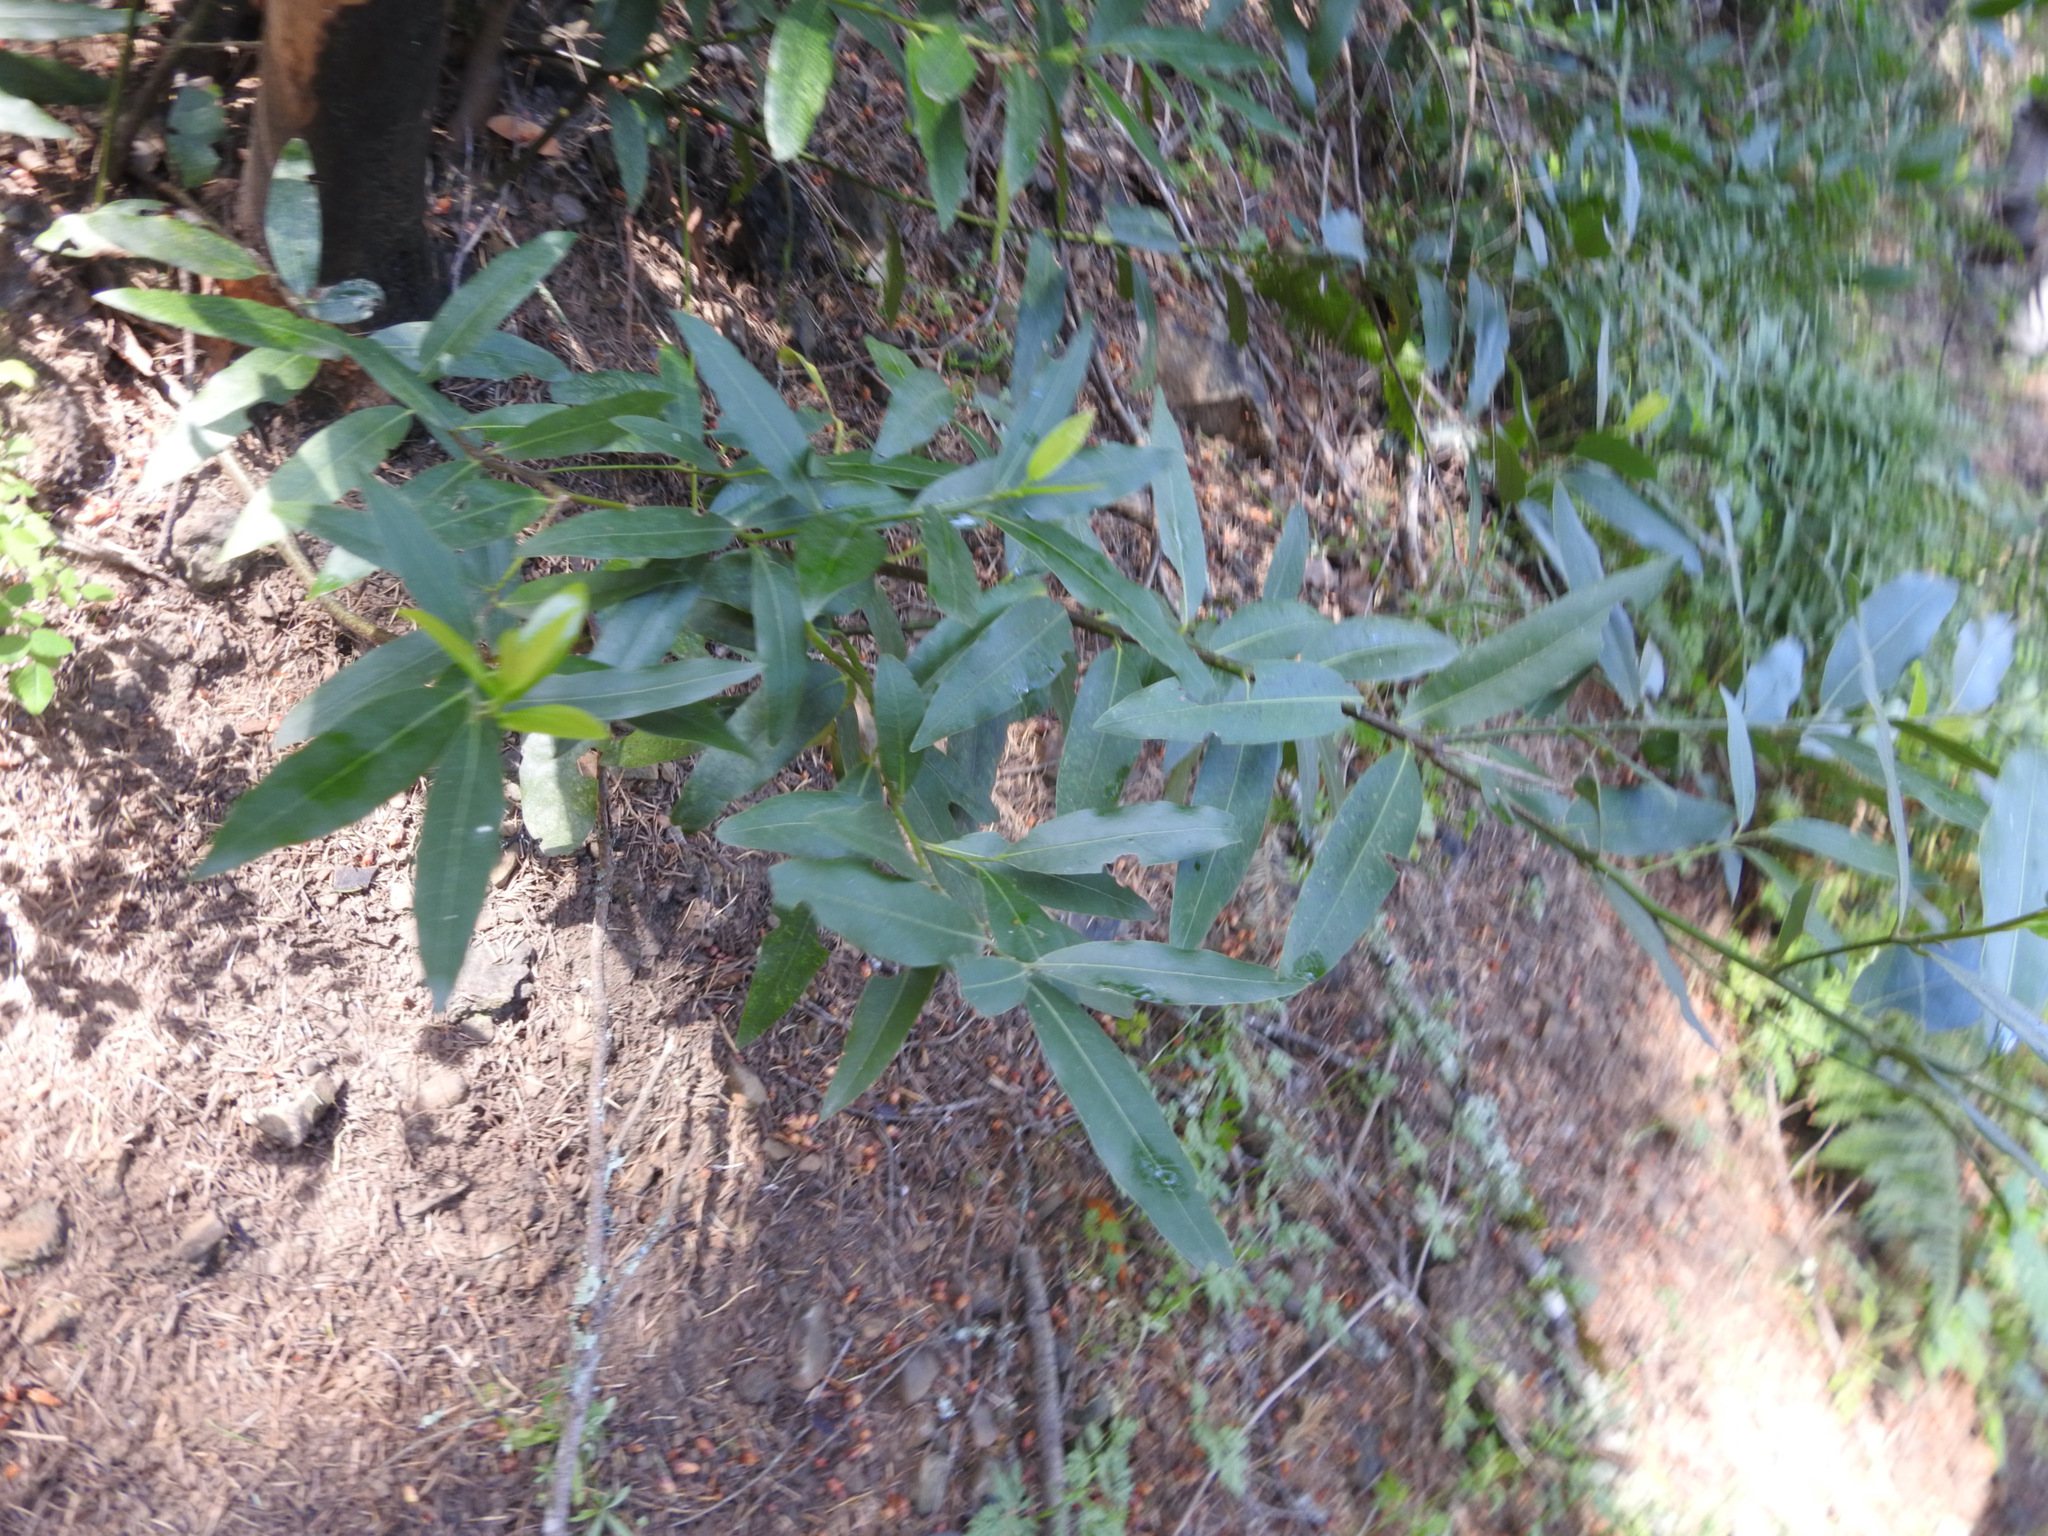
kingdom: Plantae
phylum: Tracheophyta
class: Magnoliopsida
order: Laurales
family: Lauraceae
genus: Umbellularia
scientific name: Umbellularia californica
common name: California bay
